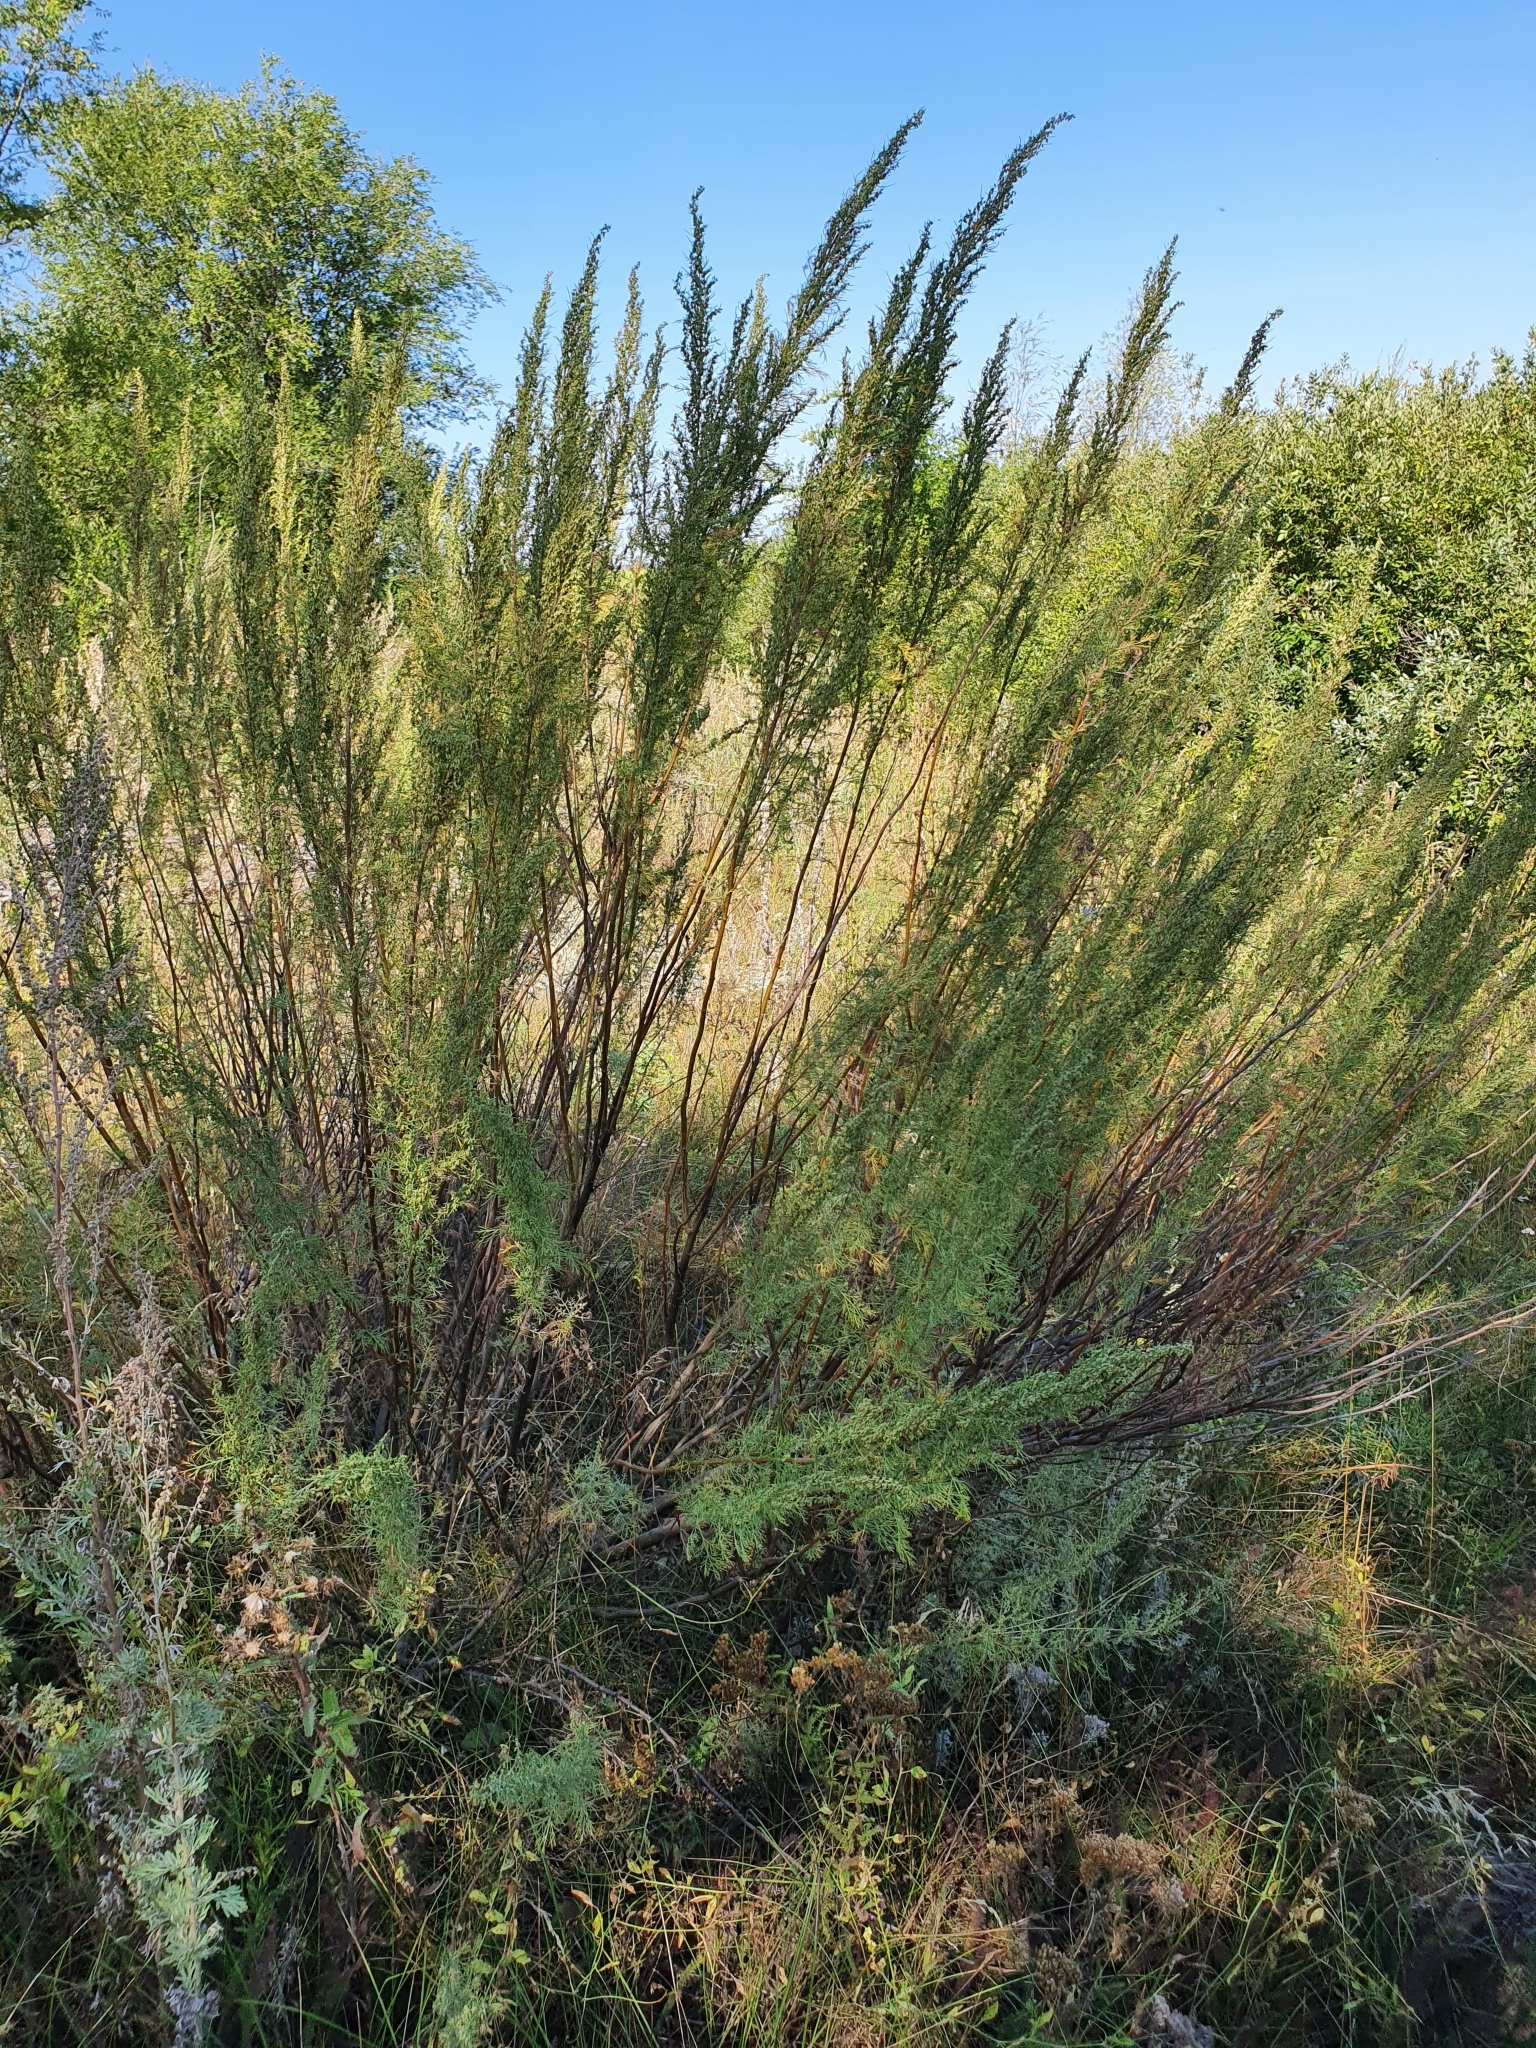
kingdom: Plantae
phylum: Tracheophyta
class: Magnoliopsida
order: Asterales
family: Asteraceae
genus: Artemisia
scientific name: Artemisia abrotanum
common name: Southernwood
